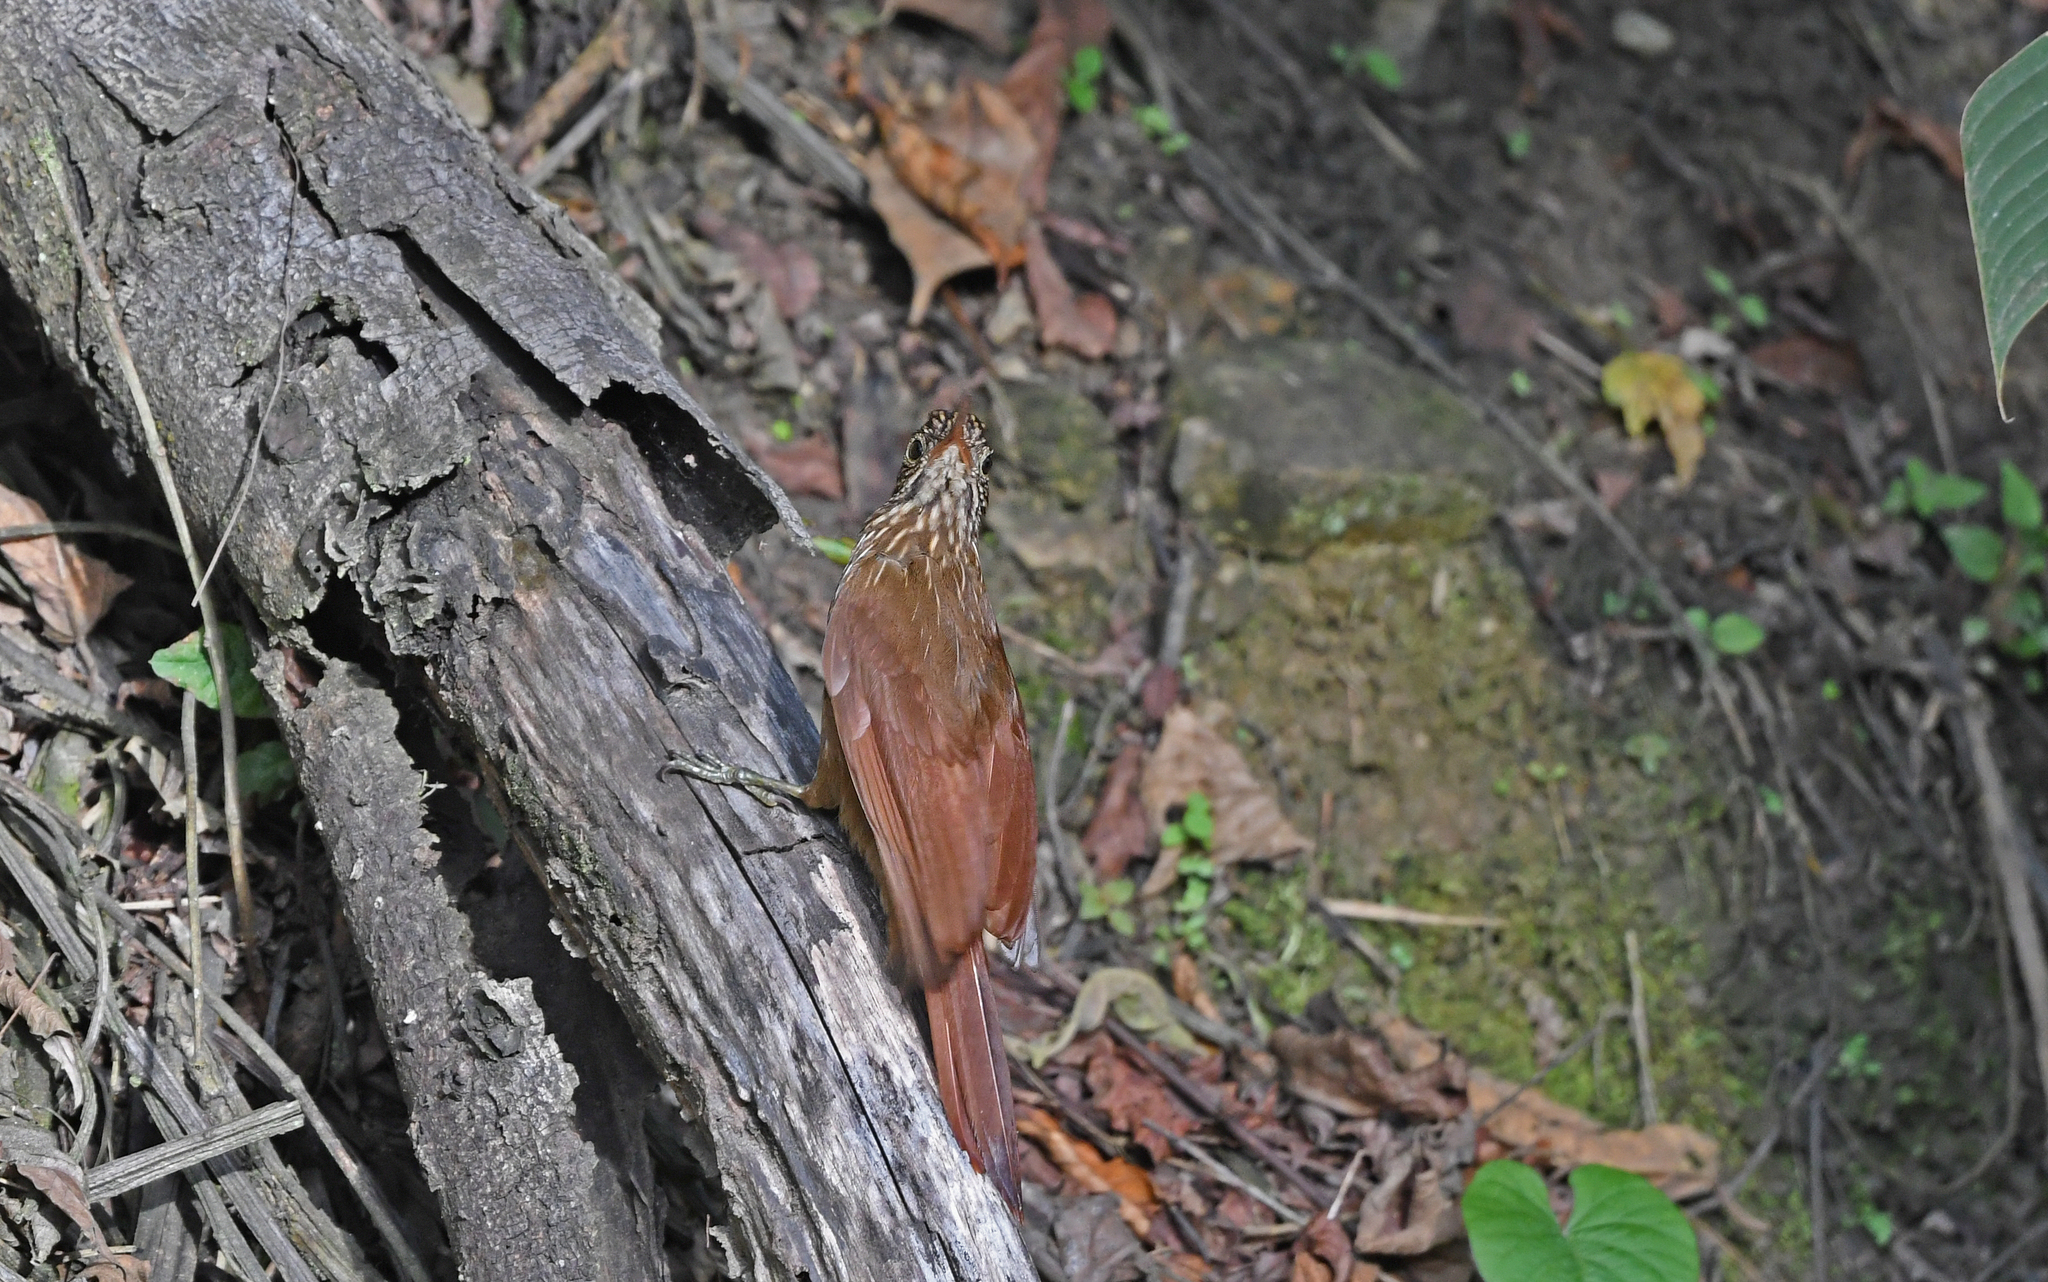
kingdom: Animalia
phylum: Chordata
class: Aves
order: Passeriformes
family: Furnariidae
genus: Campylorhamphus
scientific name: Campylorhamphus trochilirostris
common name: Red-billed scythebill
